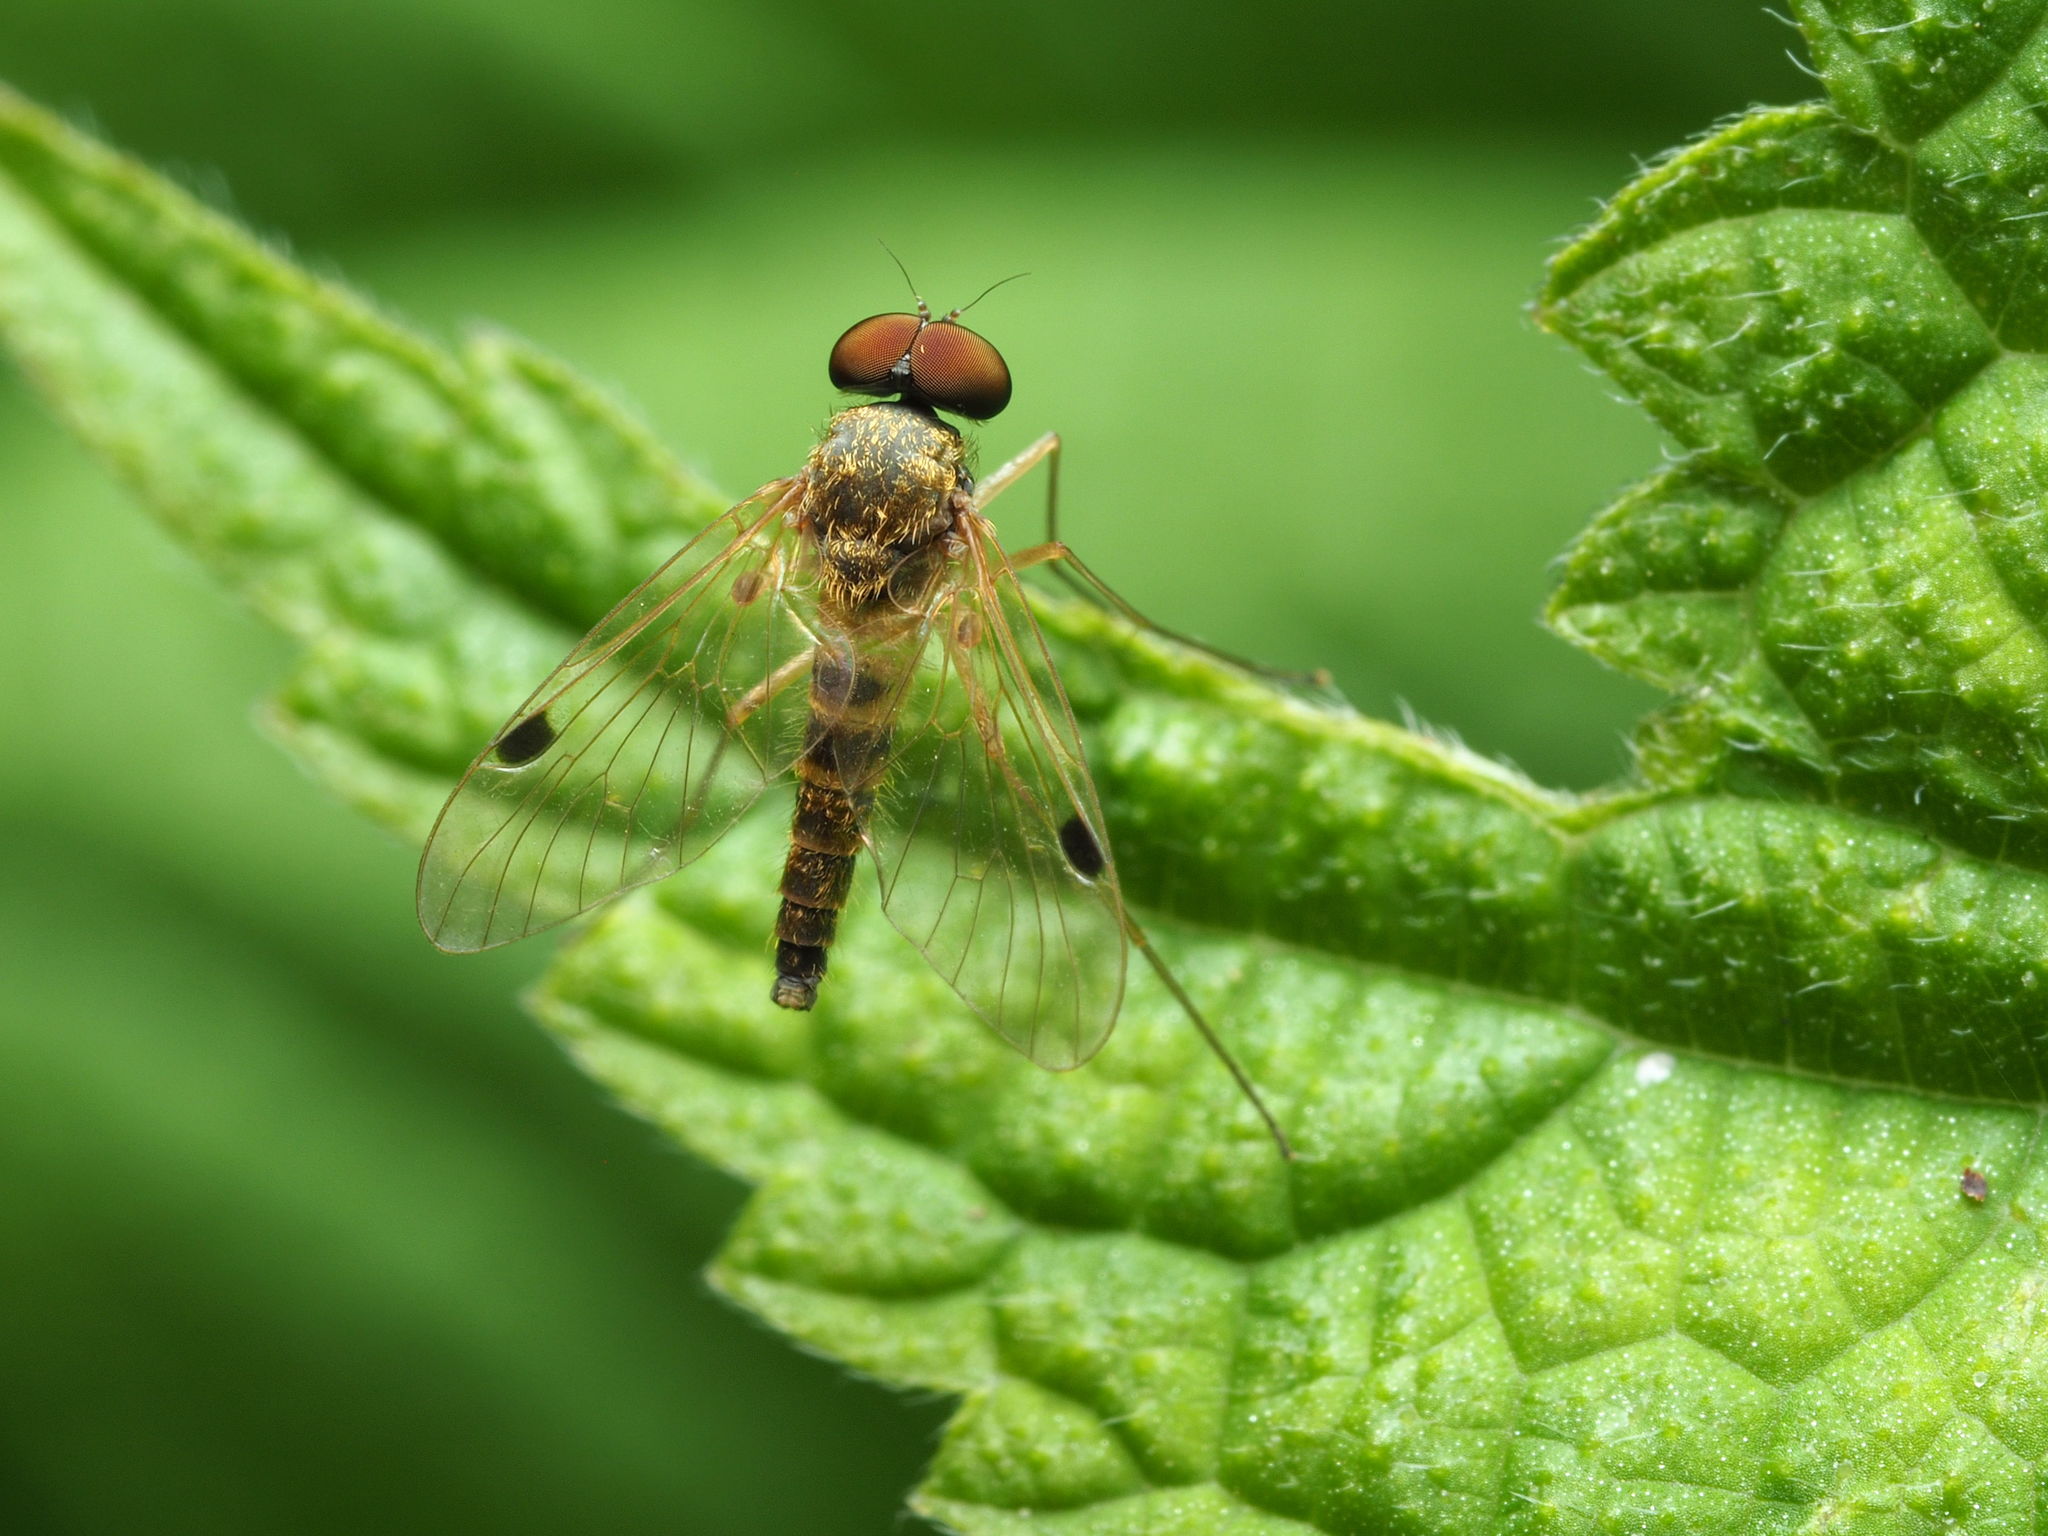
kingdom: Animalia
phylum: Arthropoda
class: Insecta
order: Diptera
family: Rhagionidae
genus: Chrysopilus
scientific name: Chrysopilus modestus
